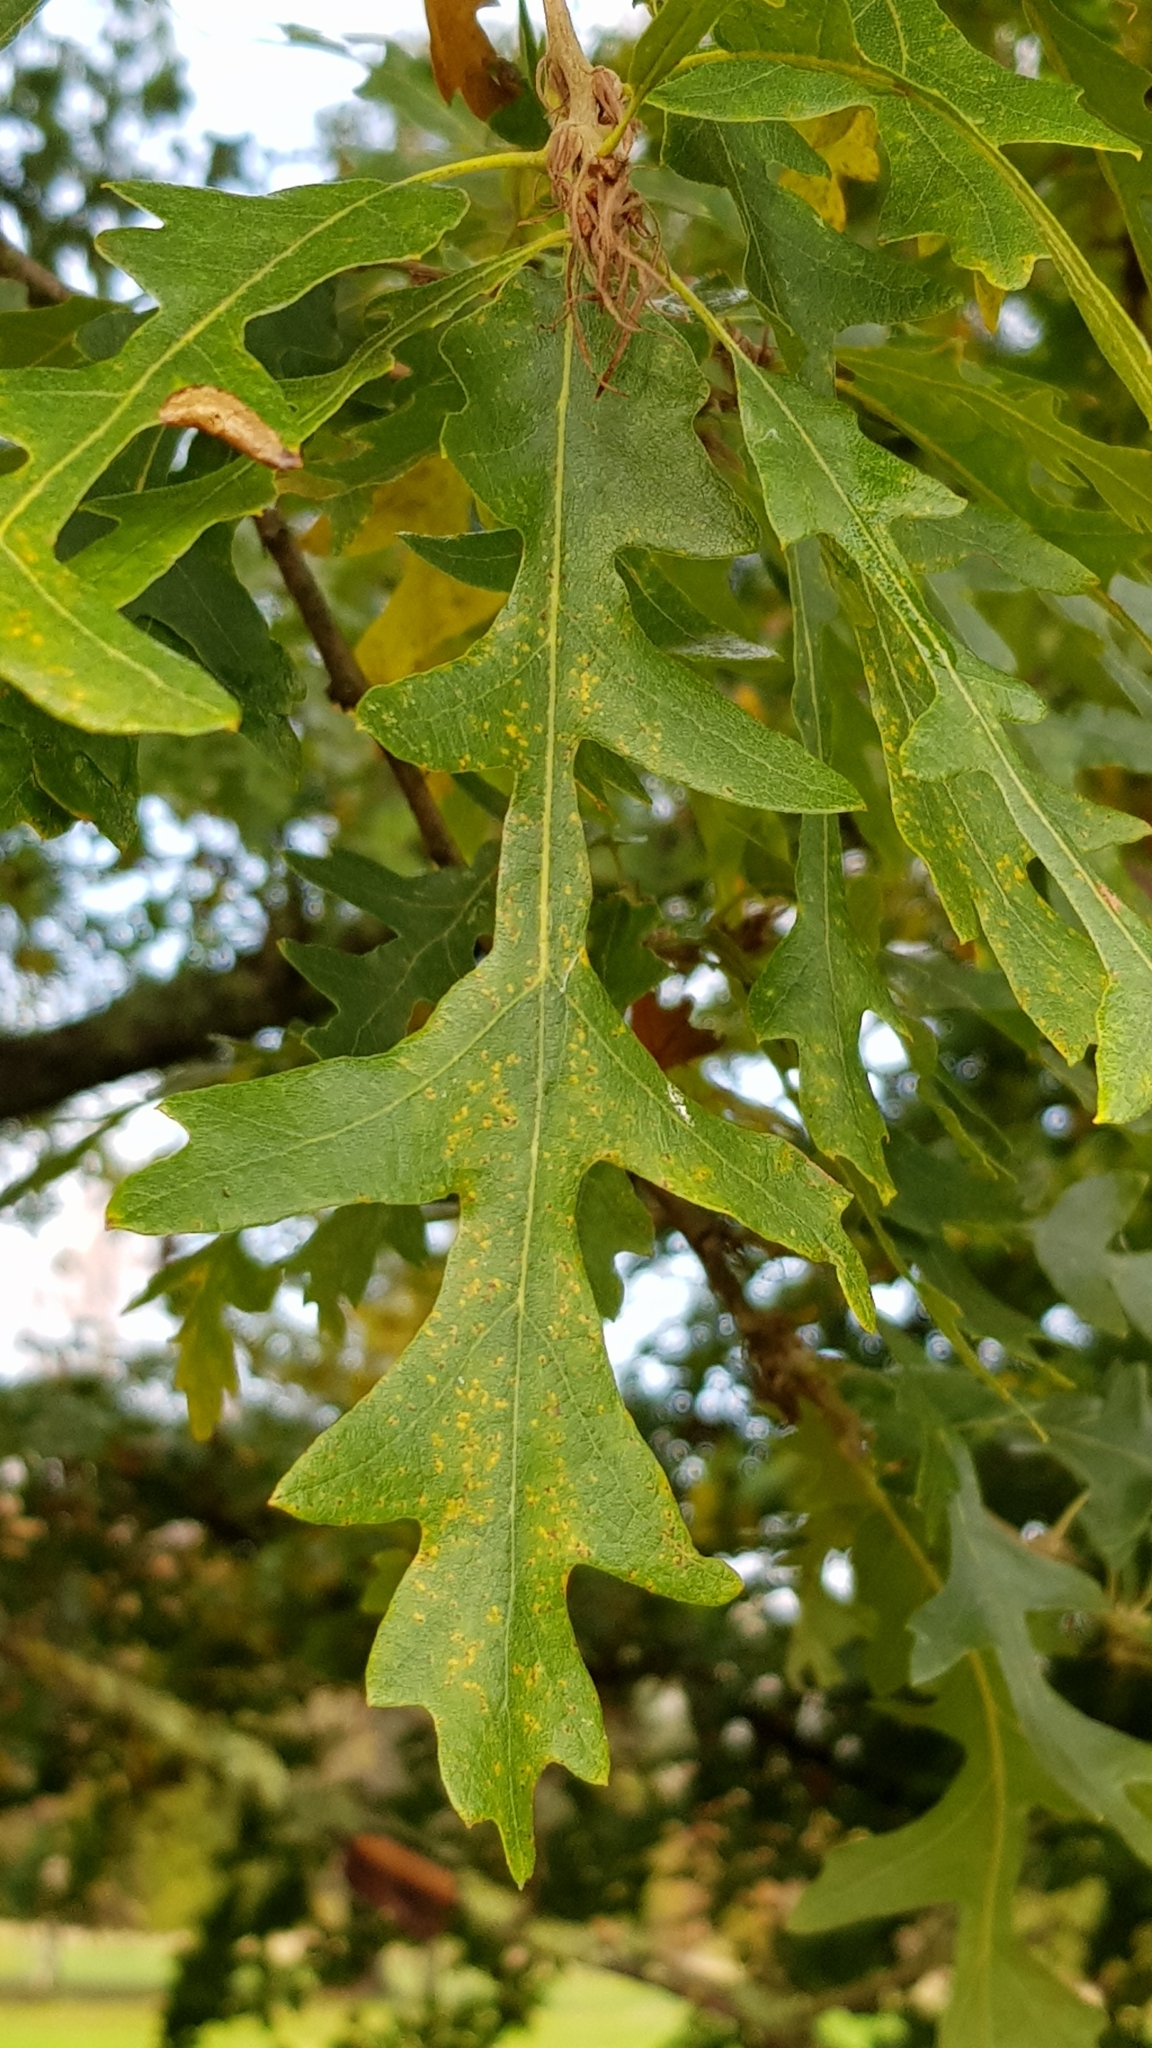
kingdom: Plantae
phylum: Tracheophyta
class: Magnoliopsida
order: Fagales
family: Fagaceae
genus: Quercus
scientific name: Quercus cerris
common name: Turkey oak
